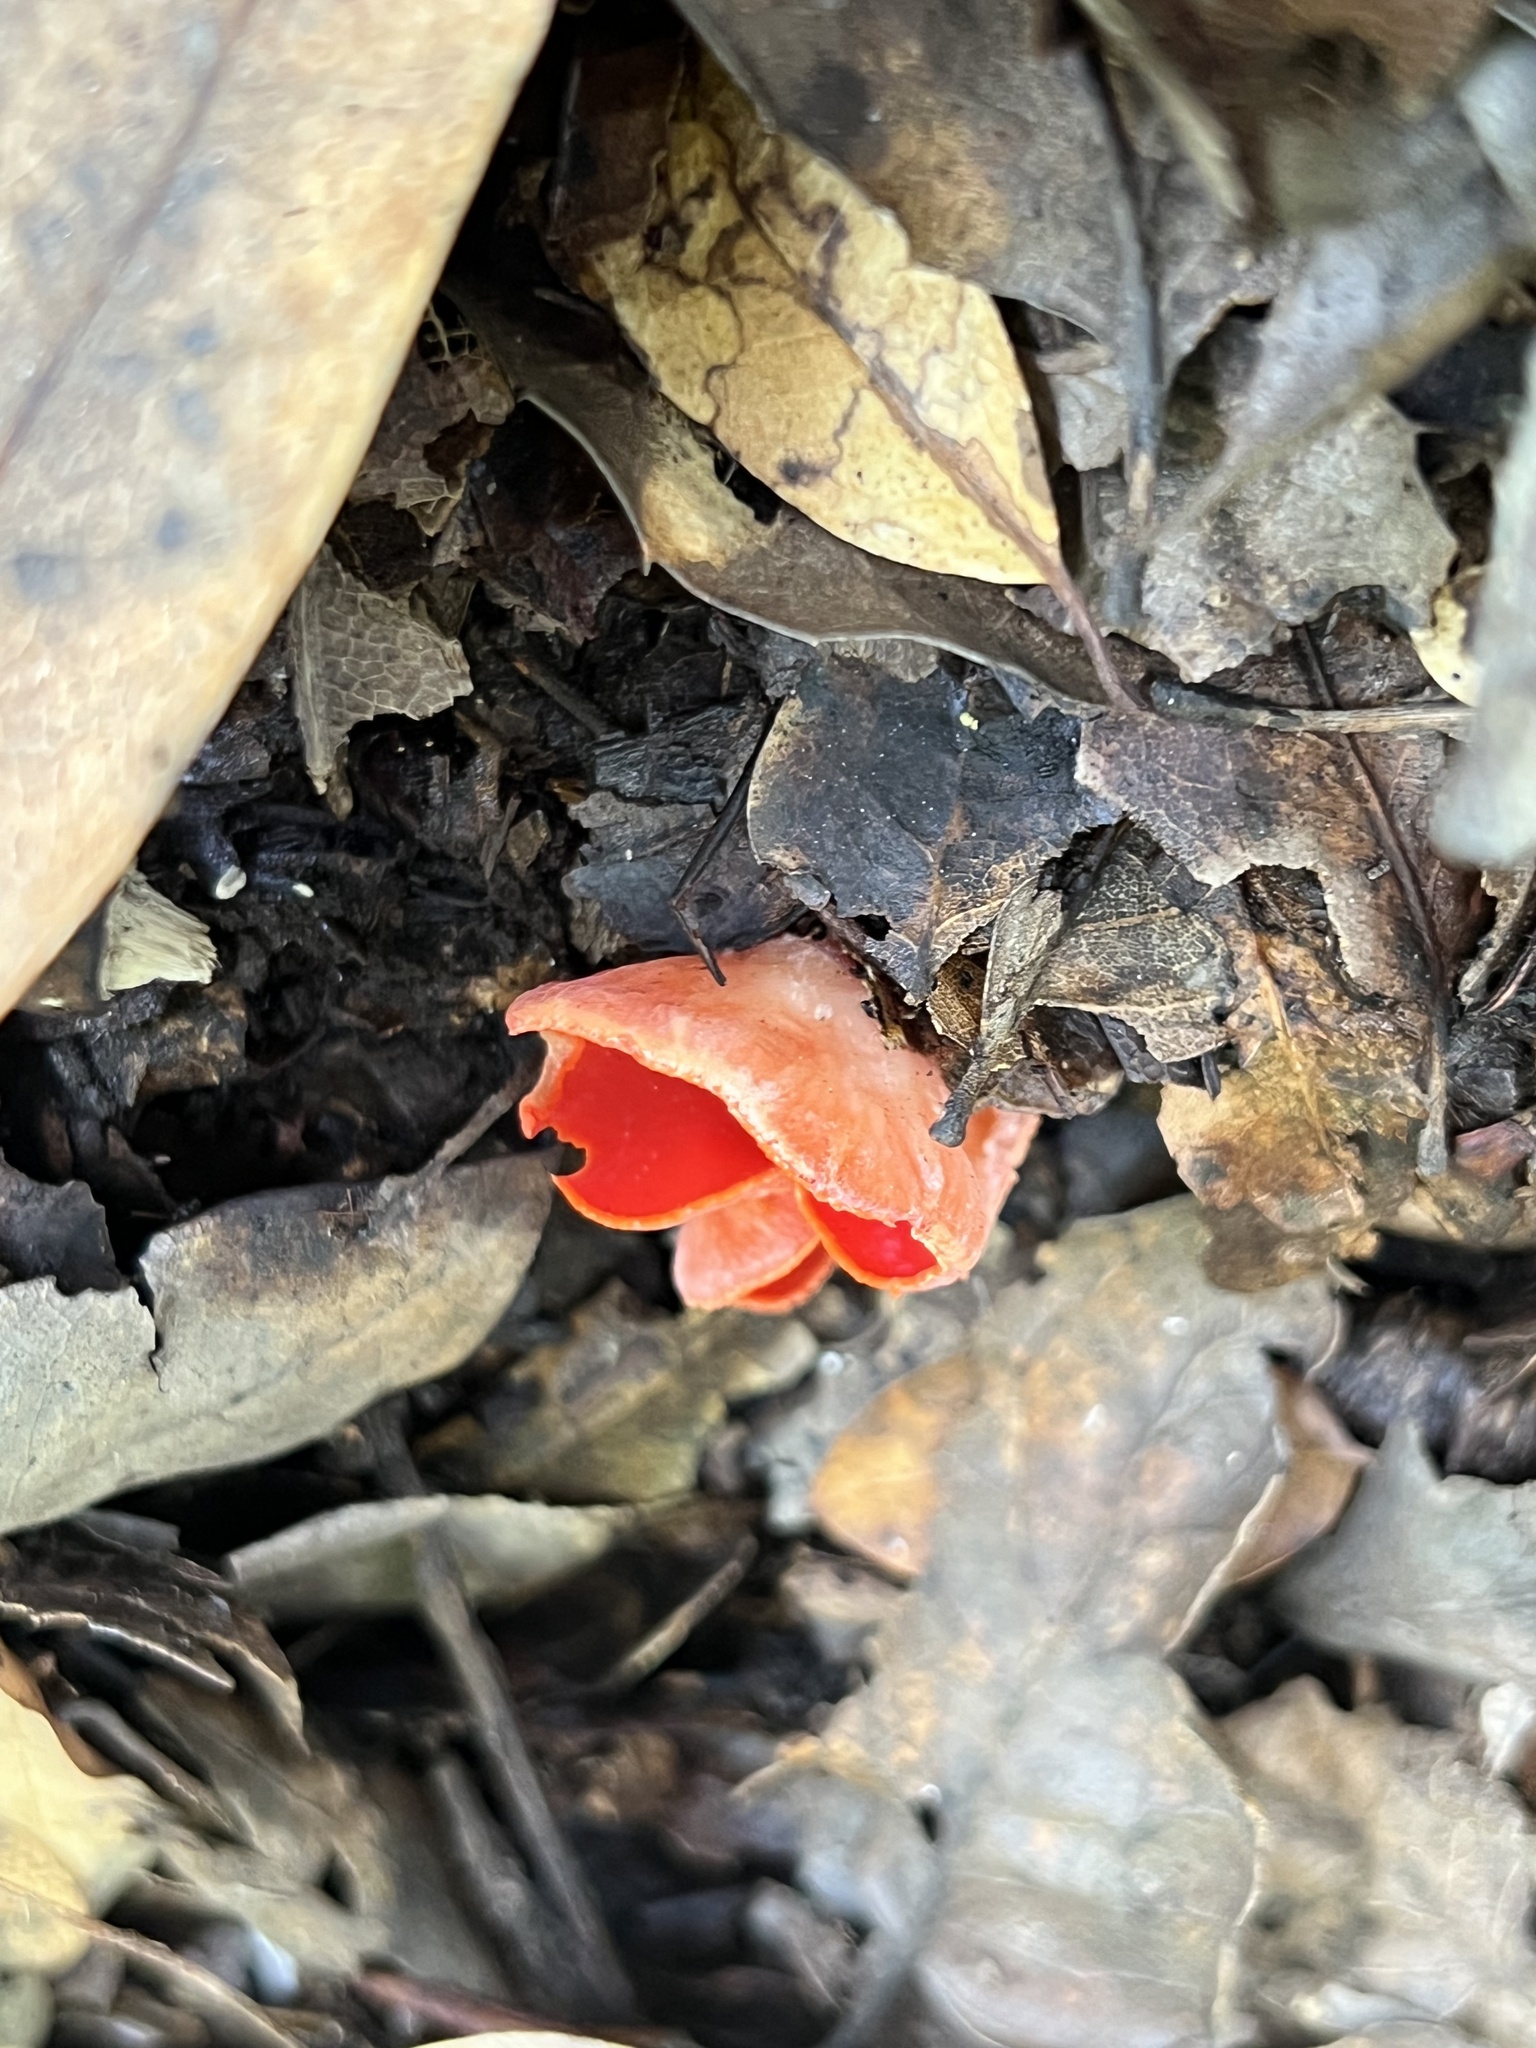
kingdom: Fungi
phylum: Ascomycota
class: Pezizomycetes
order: Pezizales
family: Sarcoscyphaceae
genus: Sarcoscypha
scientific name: Sarcoscypha coccinea
